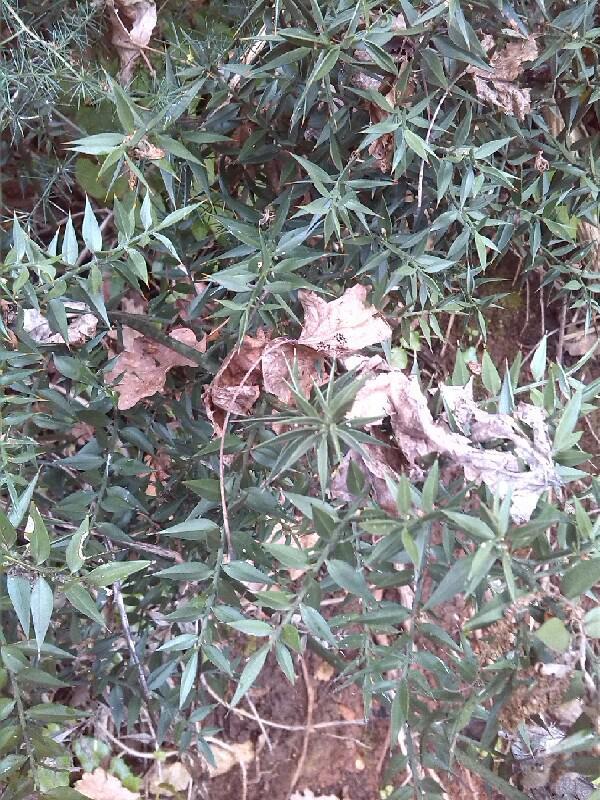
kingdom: Plantae
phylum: Tracheophyta
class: Liliopsida
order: Asparagales
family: Asparagaceae
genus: Ruscus
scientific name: Ruscus aculeatus
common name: Butcher's-broom
